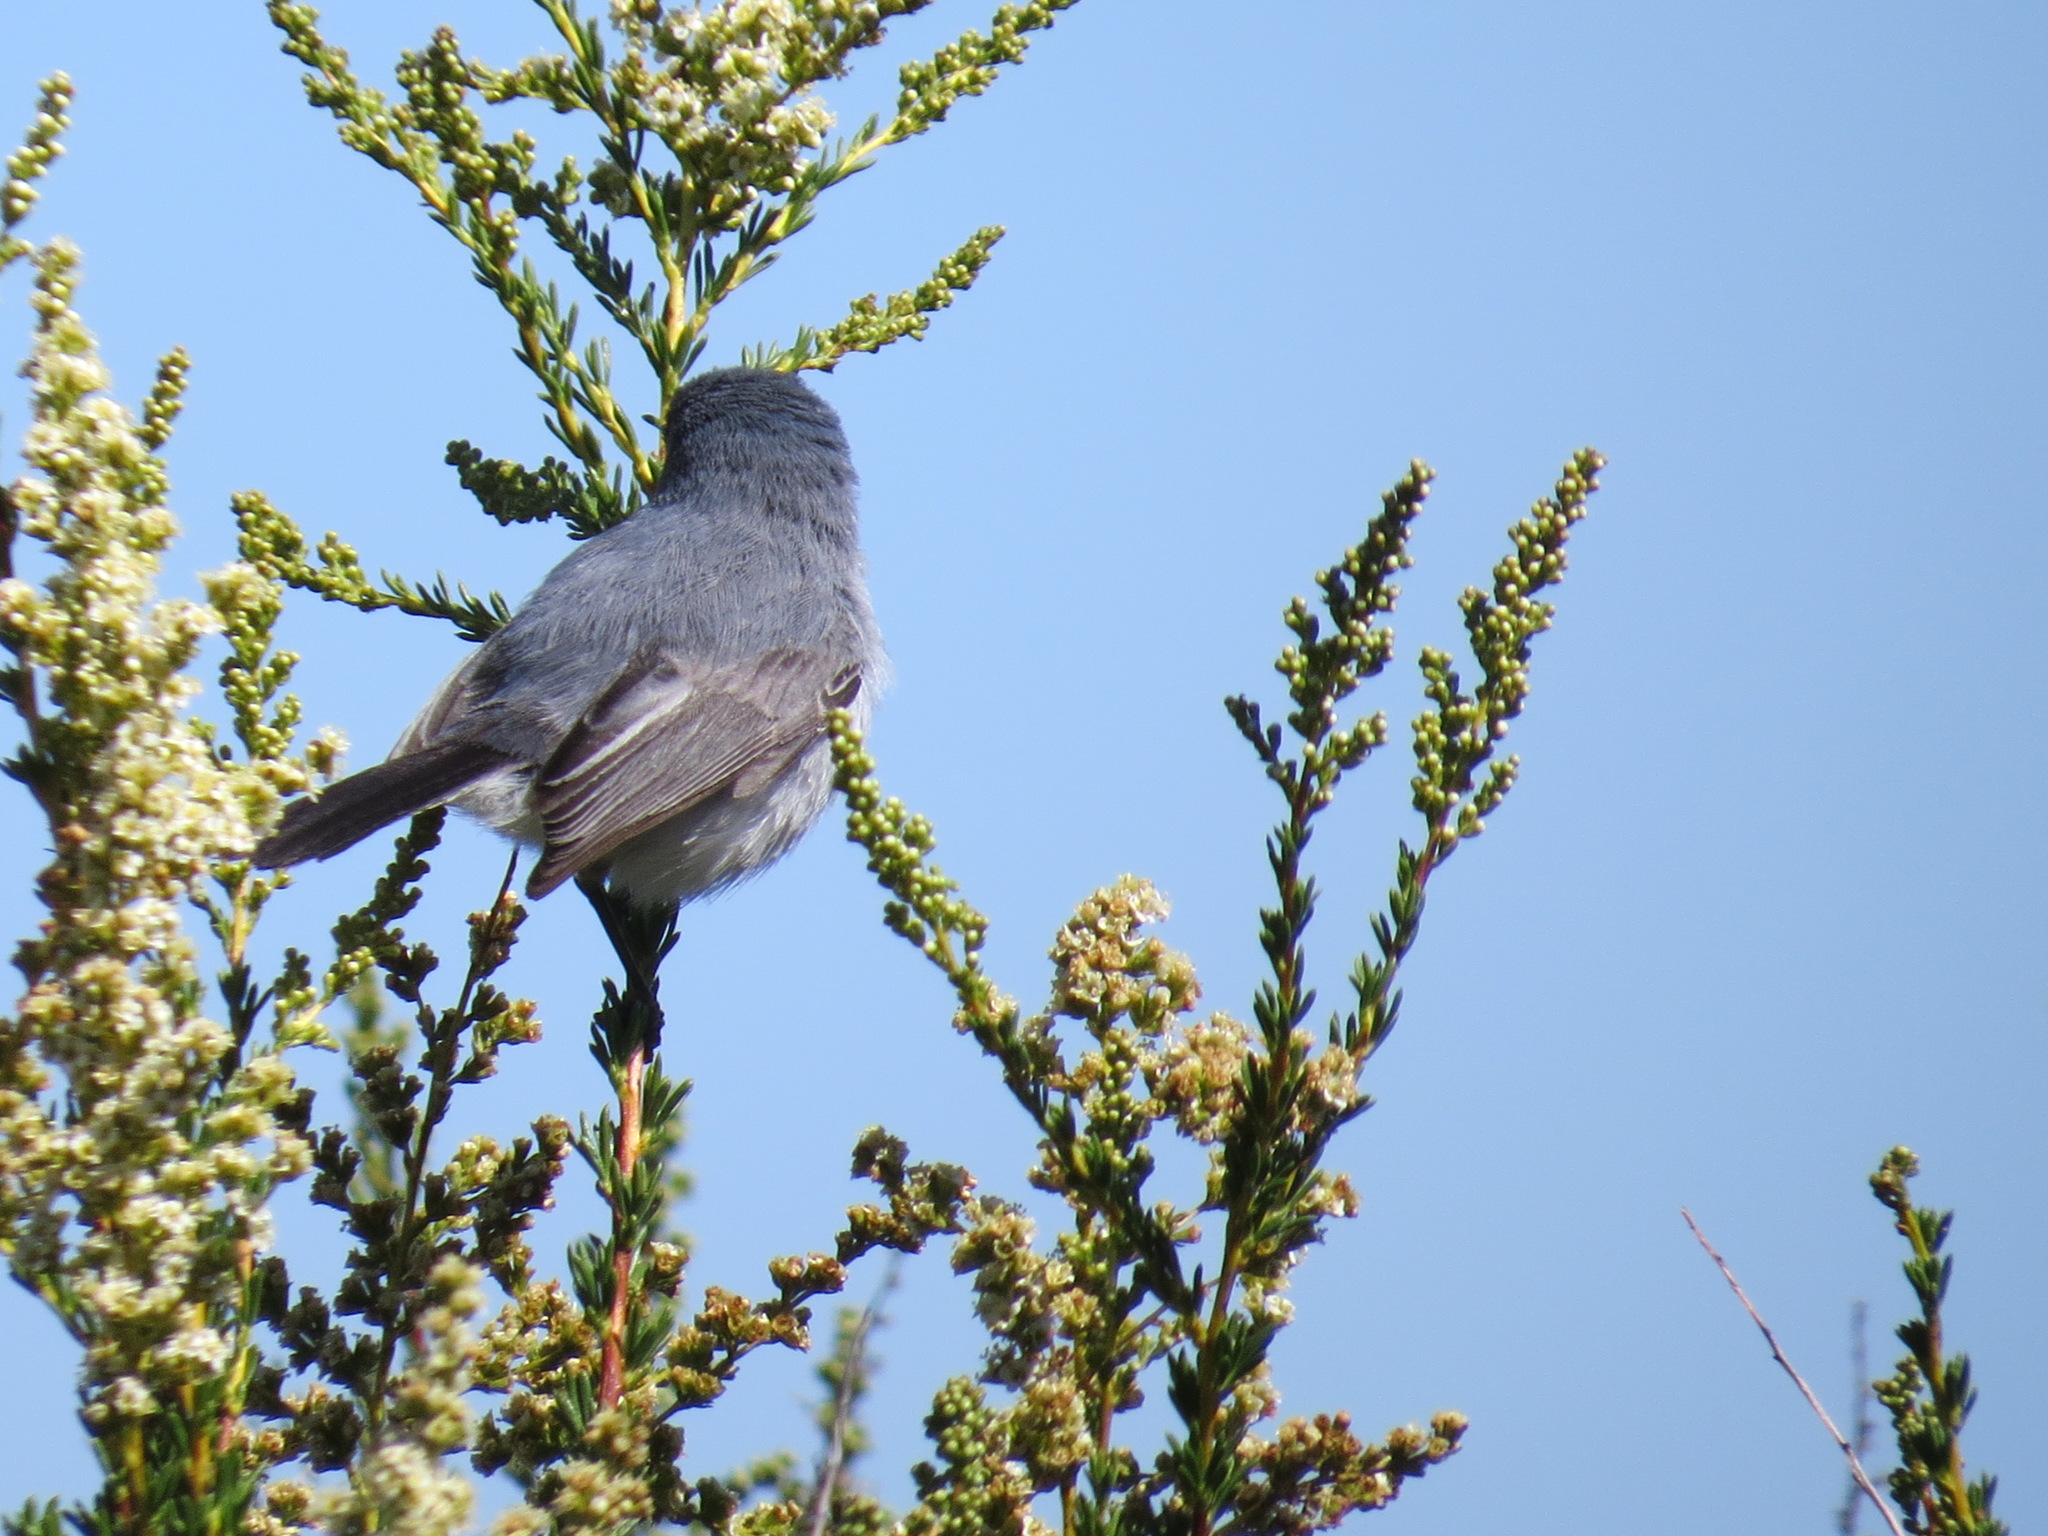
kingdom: Animalia
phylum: Chordata
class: Aves
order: Passeriformes
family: Polioptilidae
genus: Polioptila
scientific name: Polioptila caerulea
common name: Blue-gray gnatcatcher
